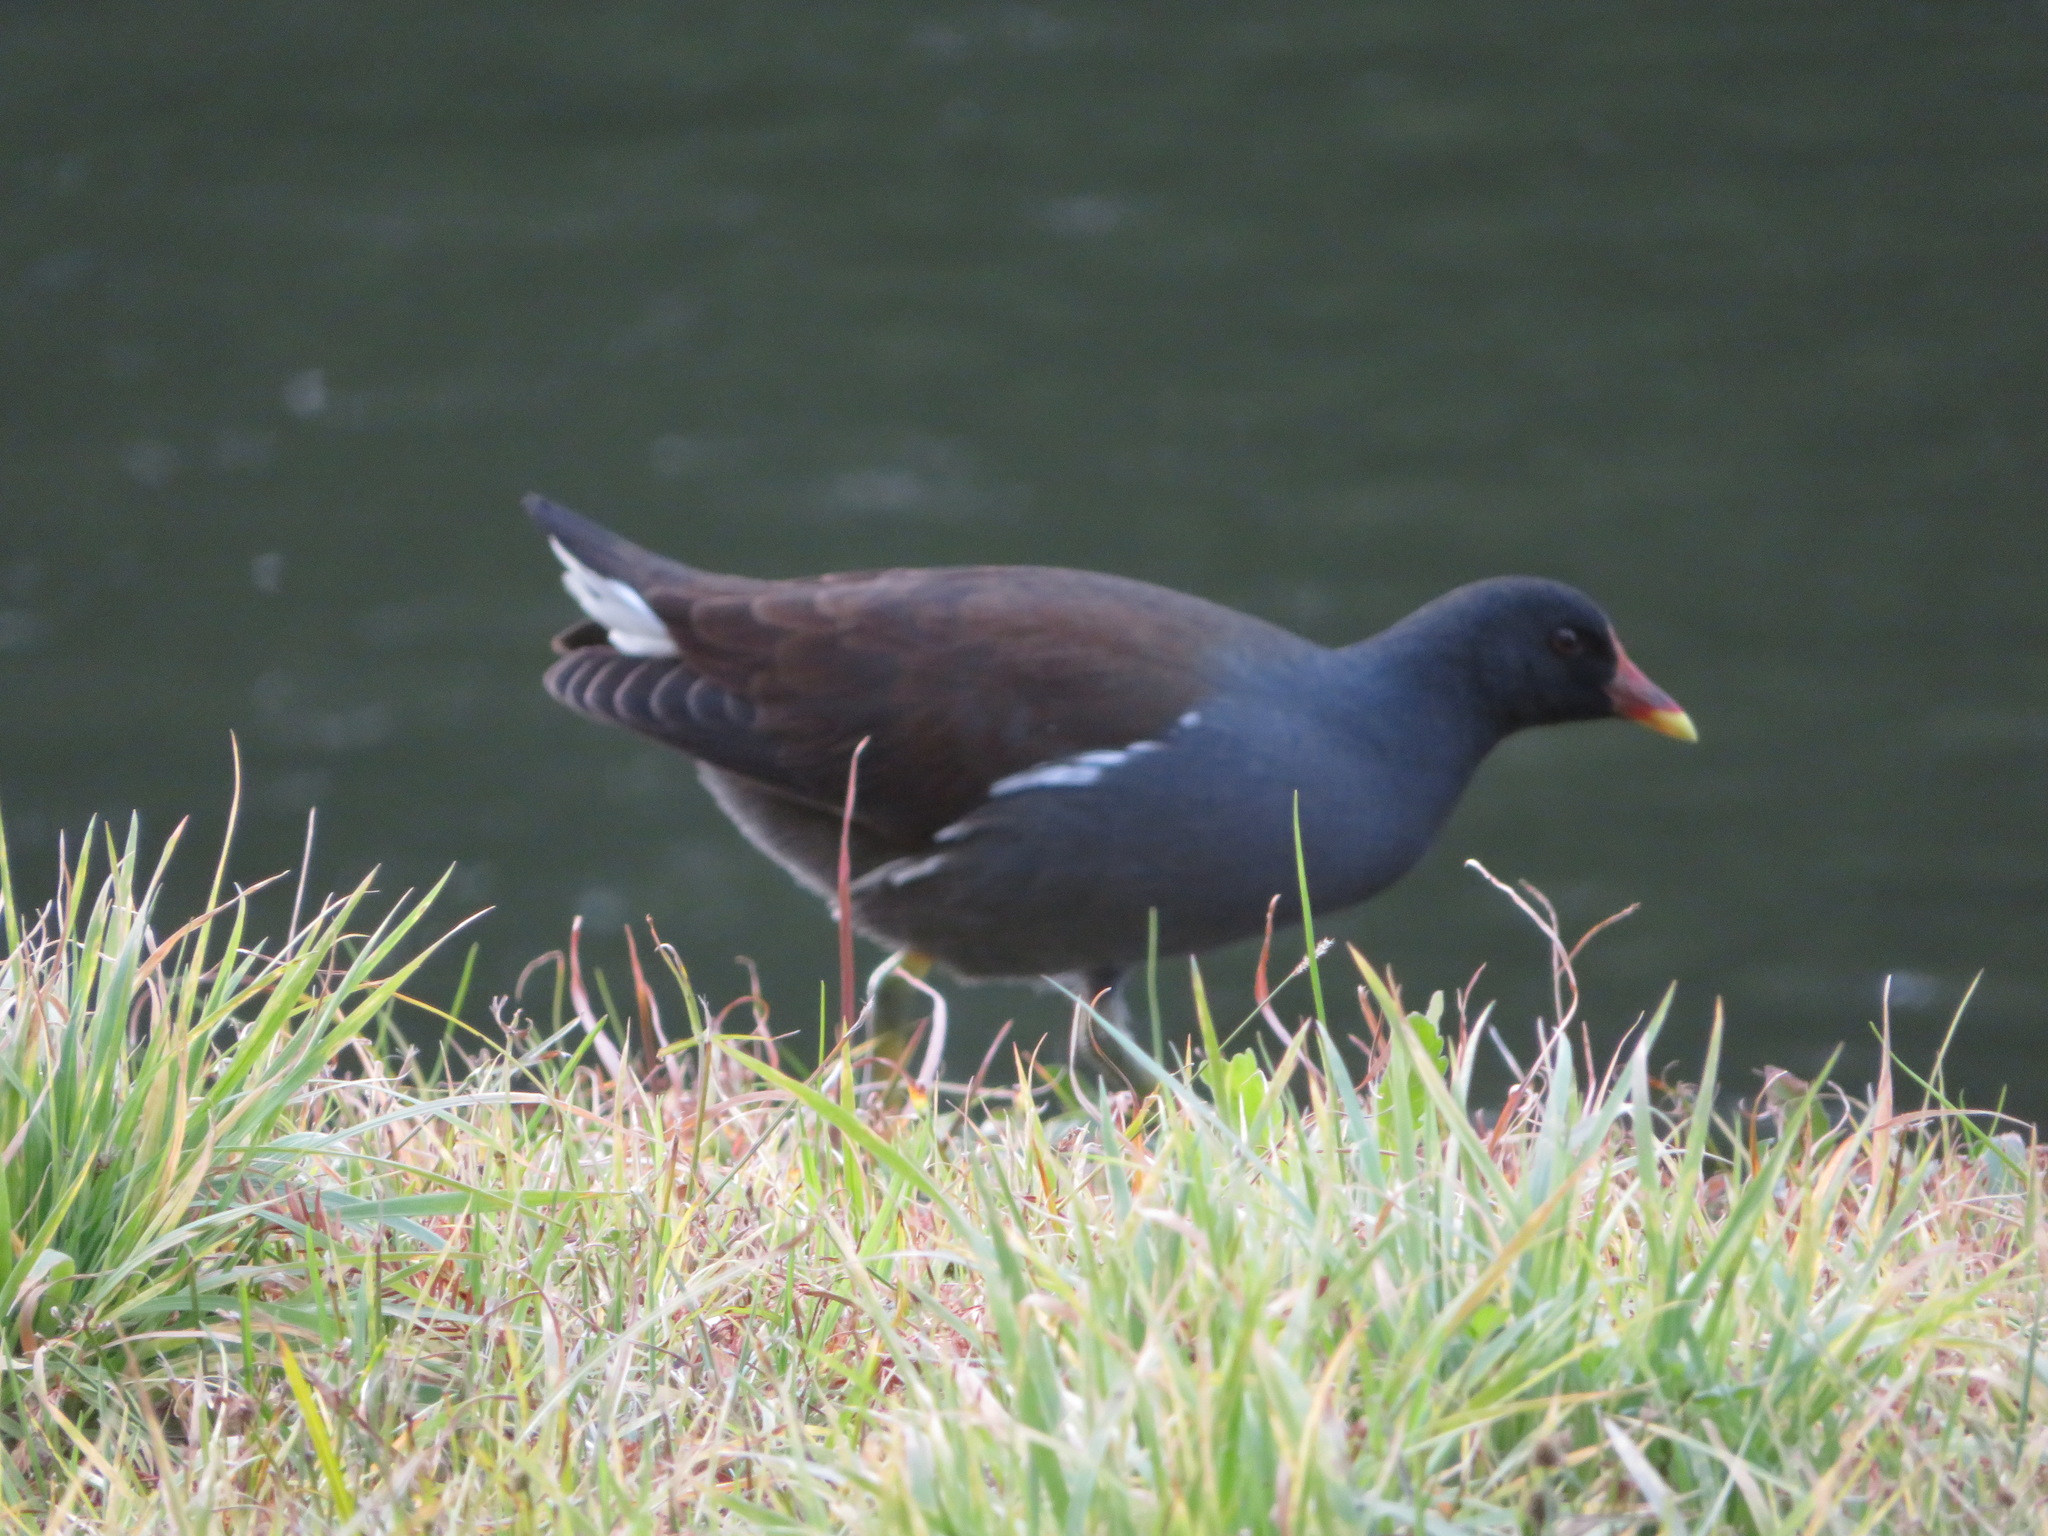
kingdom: Animalia
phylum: Chordata
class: Aves
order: Gruiformes
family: Rallidae
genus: Gallinula
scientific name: Gallinula chloropus
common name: Common moorhen
